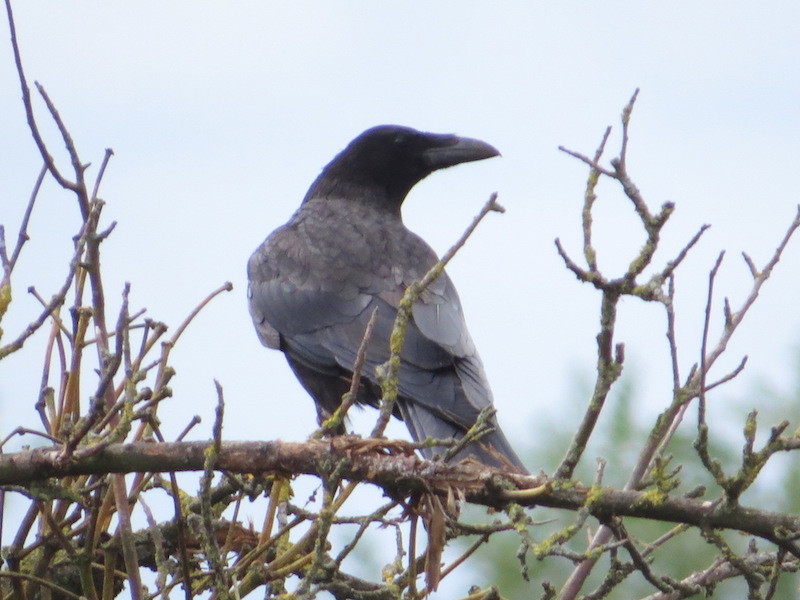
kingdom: Animalia
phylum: Chordata
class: Aves
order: Passeriformes
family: Corvidae
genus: Corvus
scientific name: Corvus corone
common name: Carrion crow
